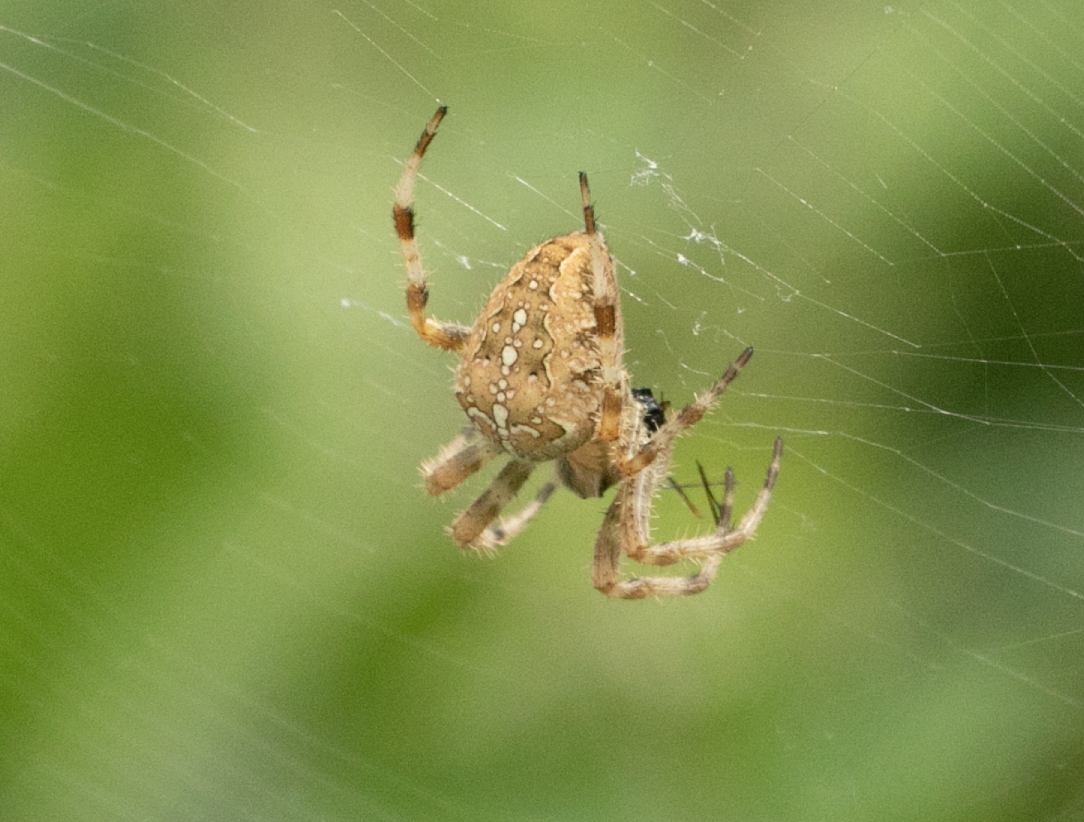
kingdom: Animalia
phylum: Arthropoda
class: Arachnida
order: Araneae
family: Araneidae
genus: Araneus
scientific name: Araneus diadematus
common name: Cross orbweaver
